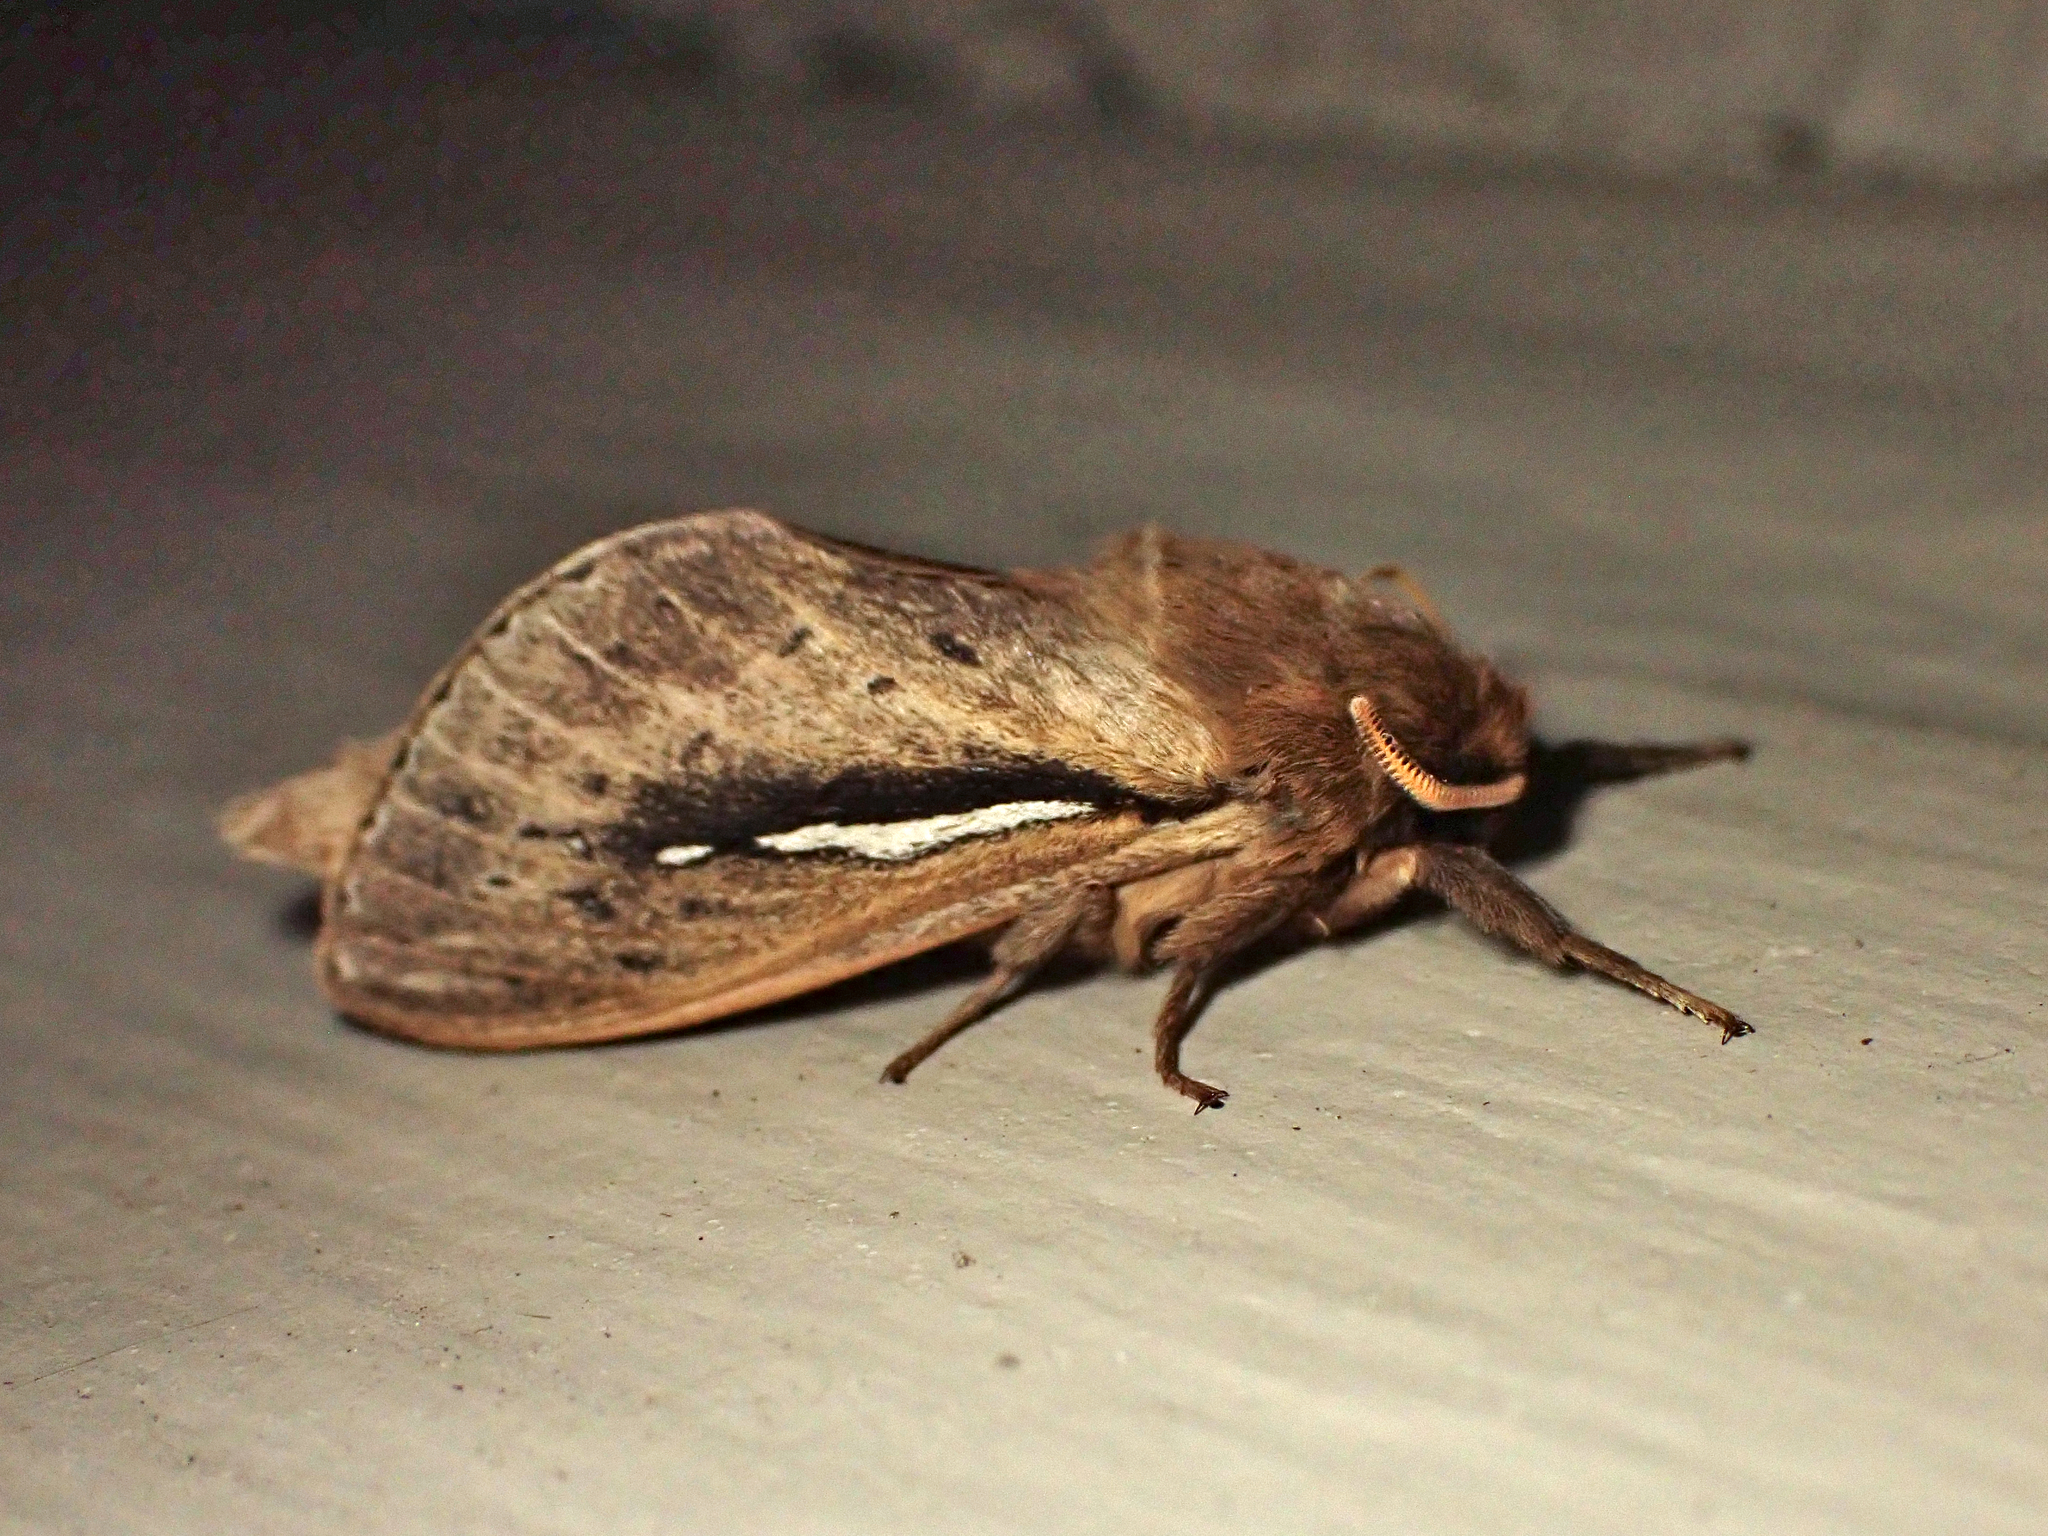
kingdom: Animalia
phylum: Arthropoda
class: Insecta
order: Lepidoptera
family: Hepialidae
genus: Wiseana
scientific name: Wiseana umbraculatus
